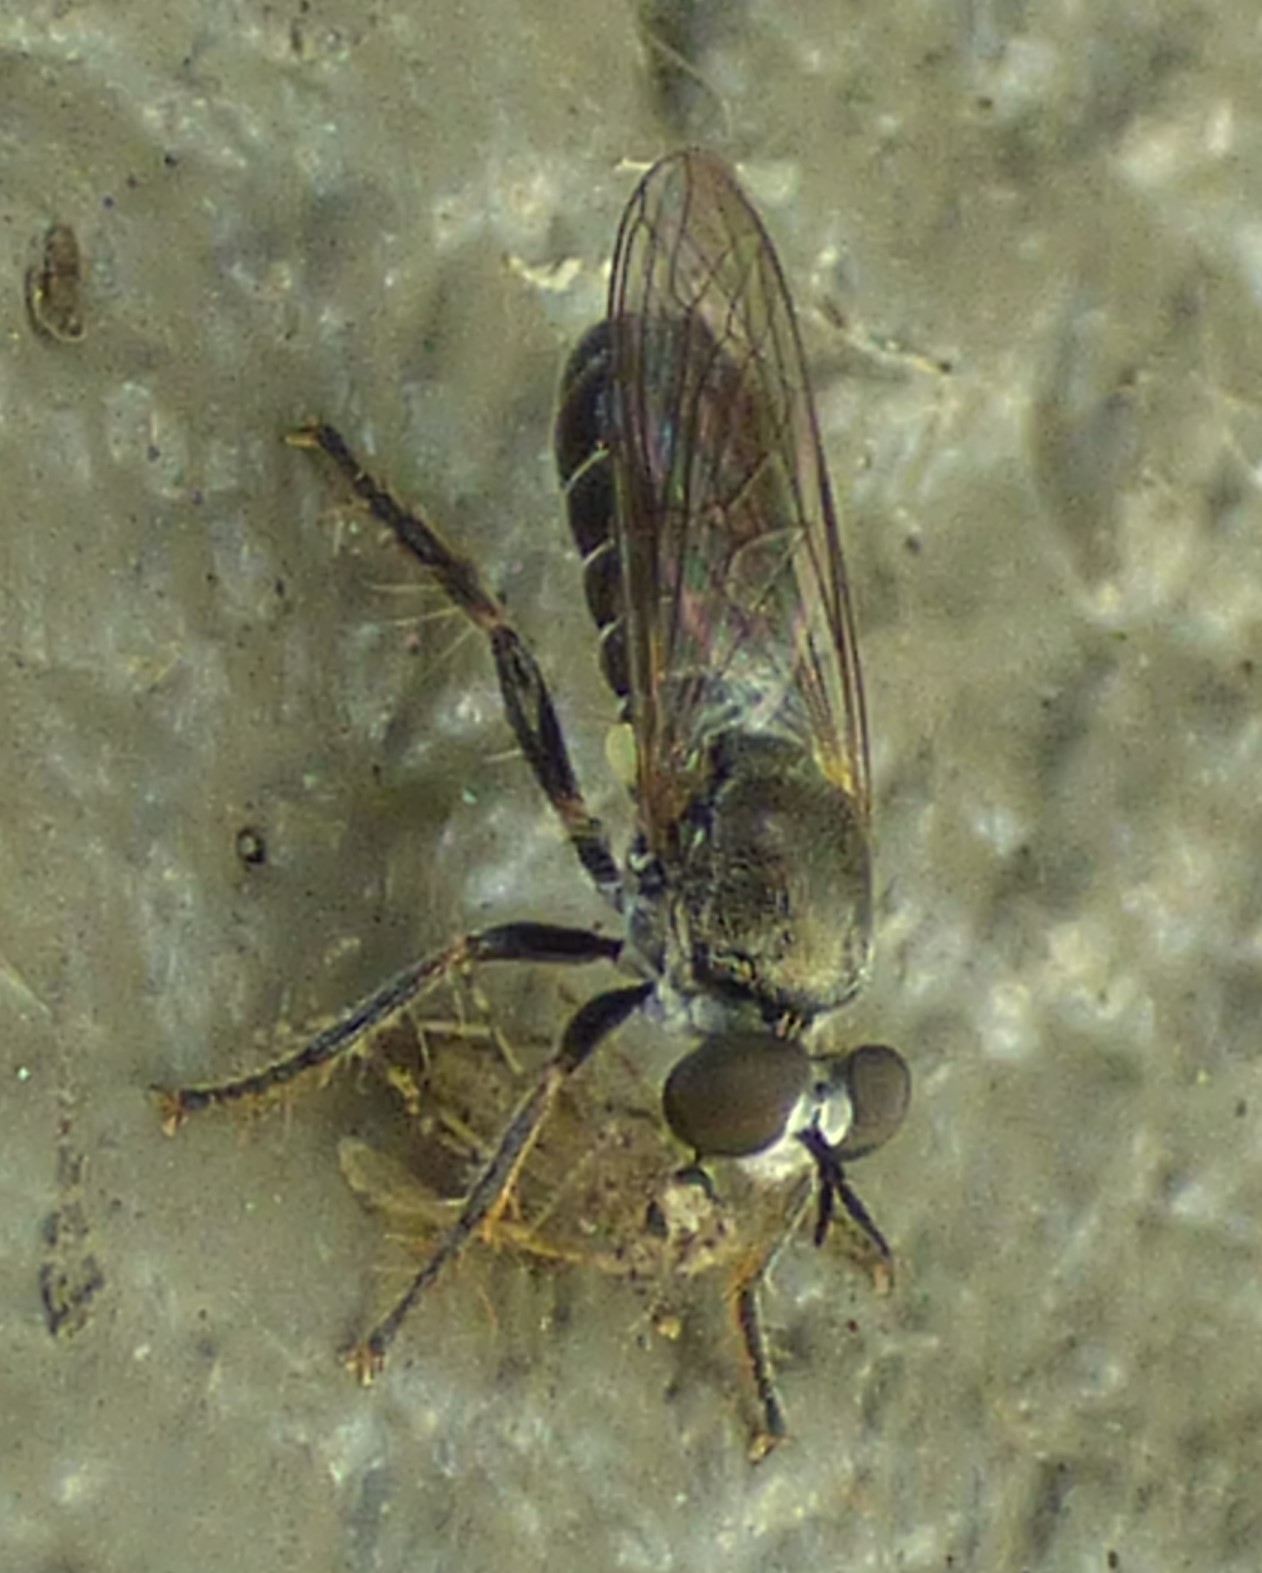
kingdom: Animalia
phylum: Arthropoda
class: Insecta
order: Diptera
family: Asilidae
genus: Atomosia
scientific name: Atomosia puella
